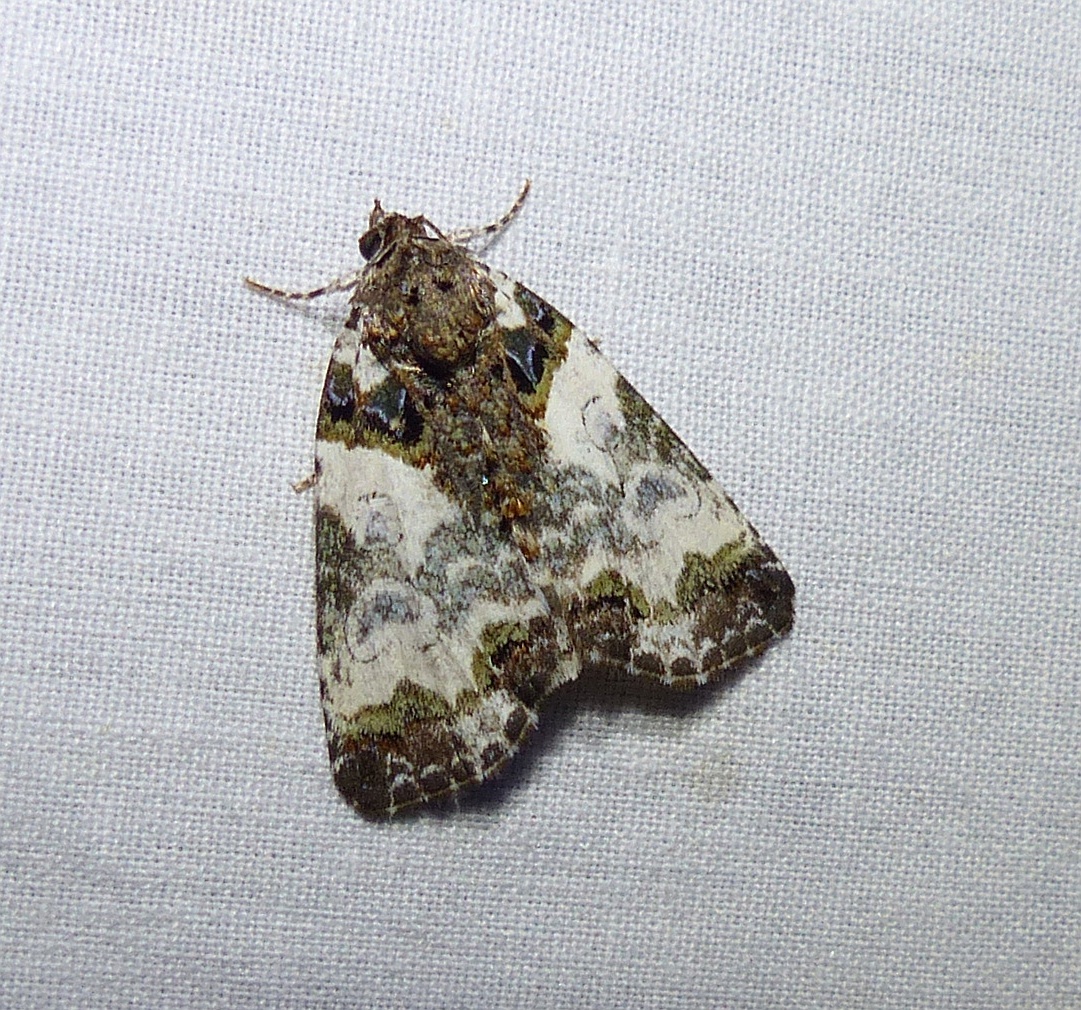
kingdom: Animalia
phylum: Arthropoda
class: Insecta
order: Lepidoptera
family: Noctuidae
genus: Cerma
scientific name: Cerma cerintha
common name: Tufted bird-dropping moth
